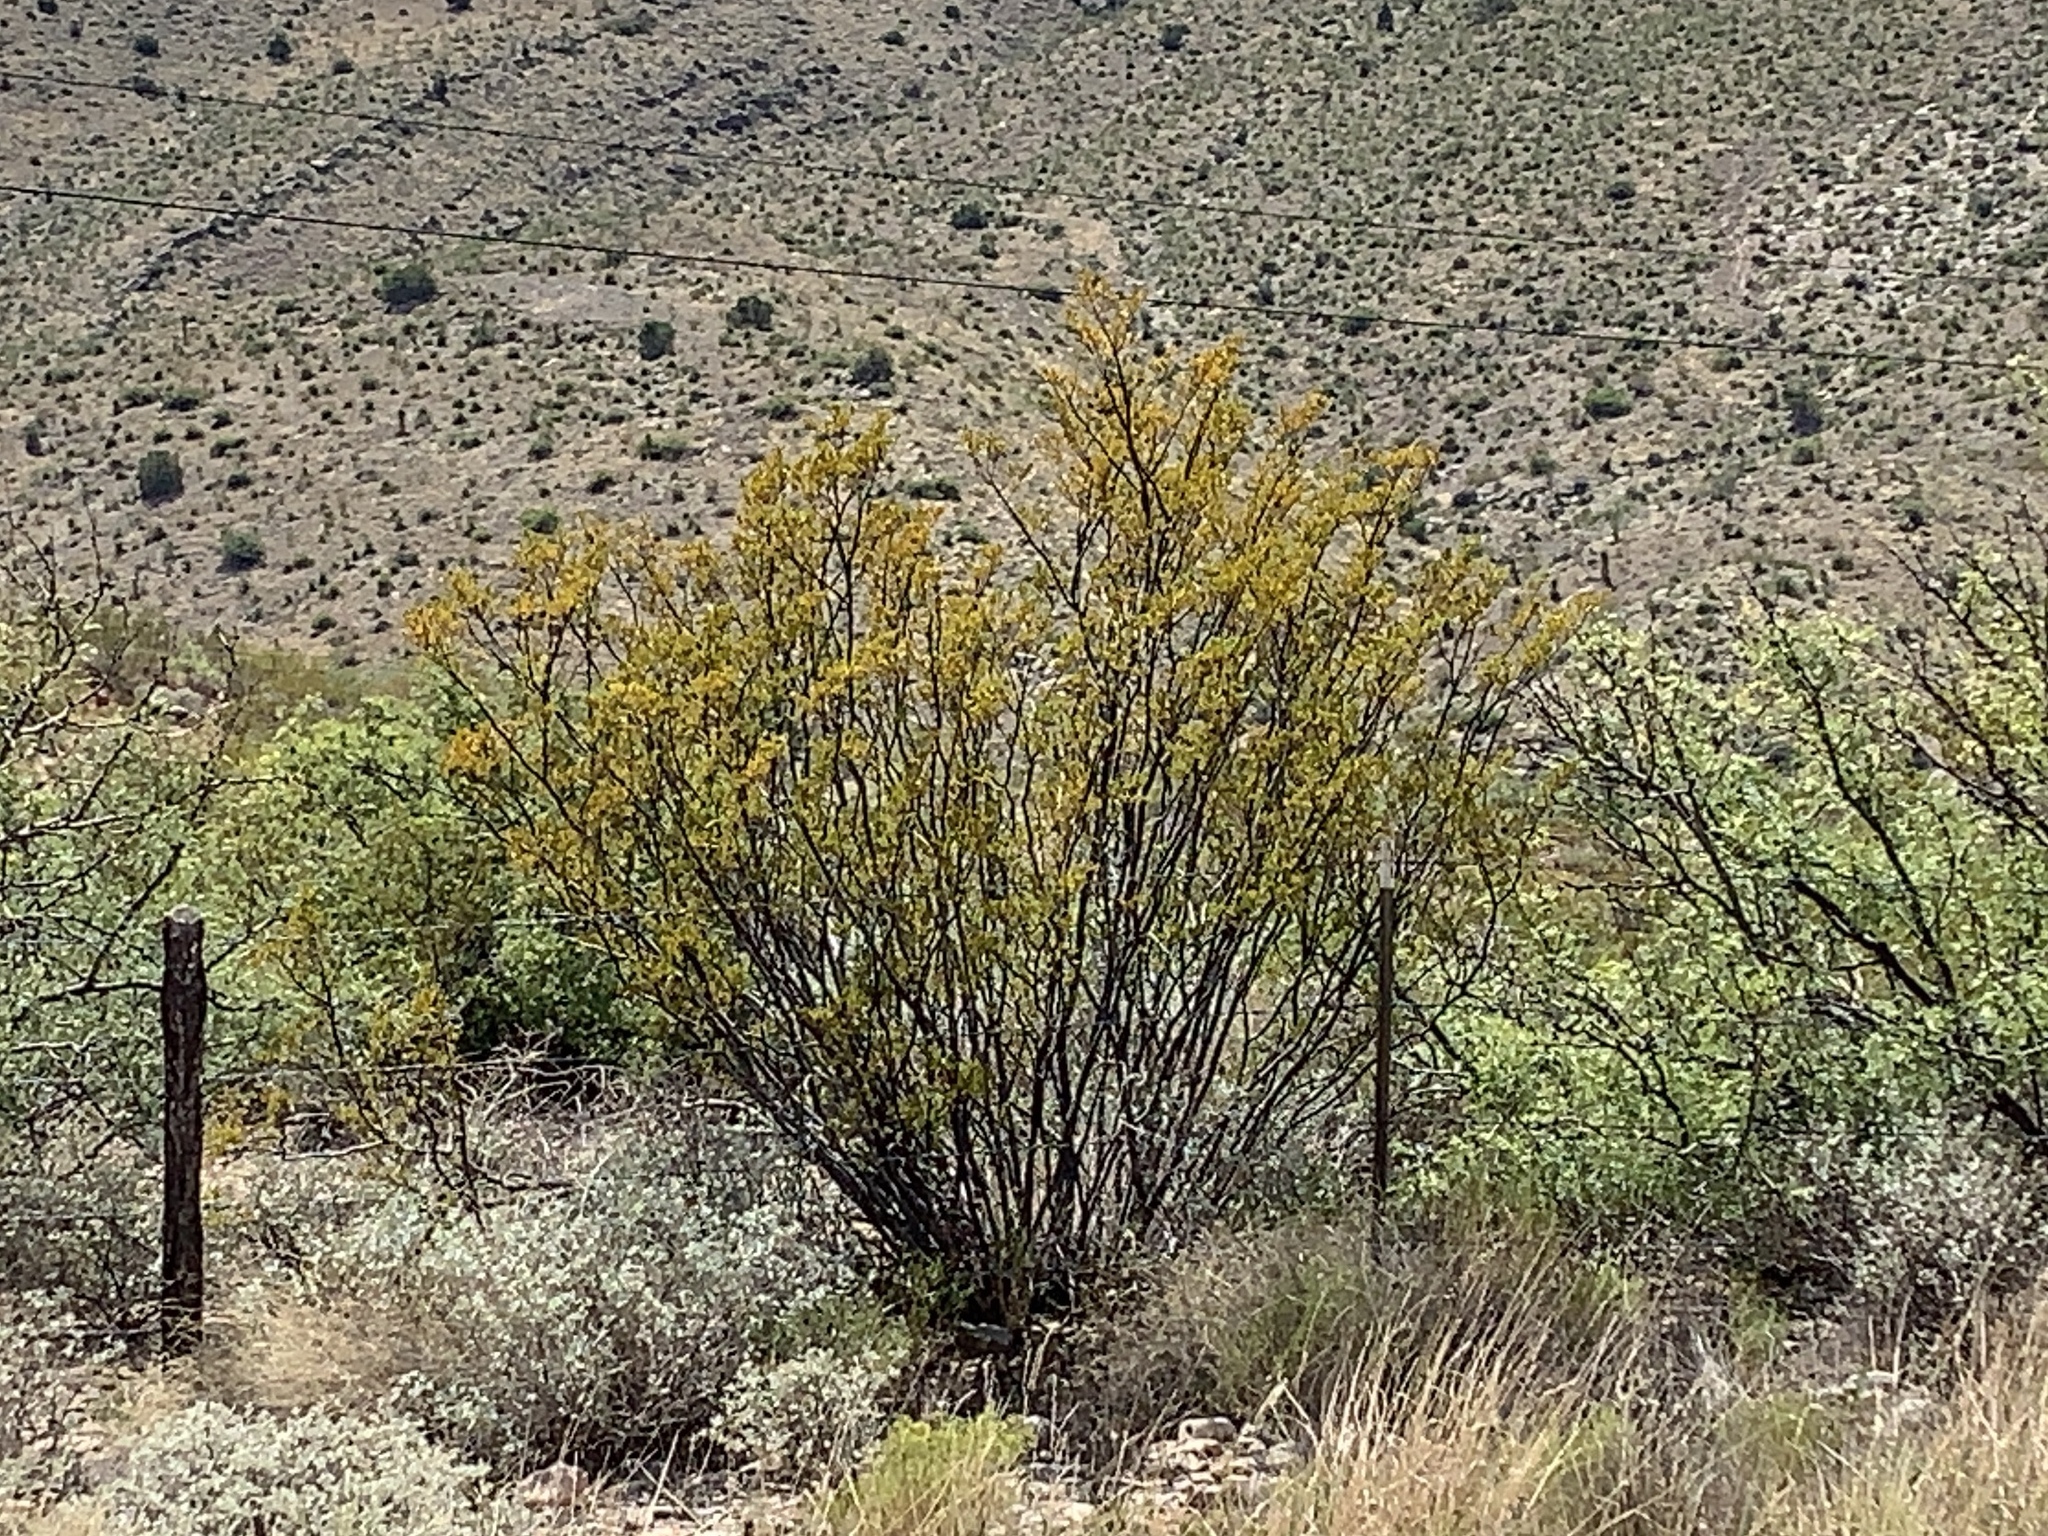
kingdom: Plantae
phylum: Tracheophyta
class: Magnoliopsida
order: Zygophyllales
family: Zygophyllaceae
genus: Larrea
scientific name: Larrea tridentata
